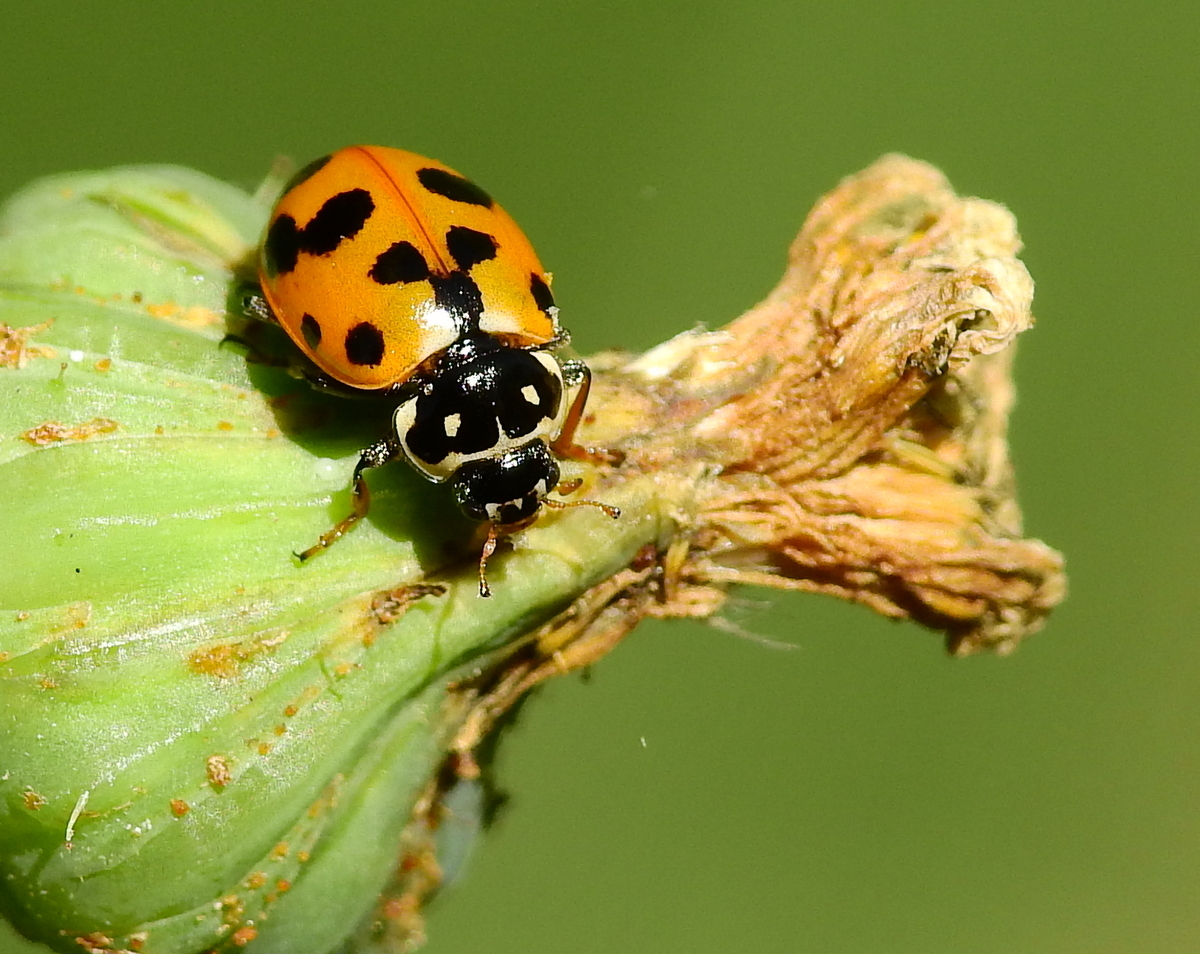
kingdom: Animalia
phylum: Arthropoda
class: Insecta
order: Coleoptera
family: Coccinellidae
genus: Hippodamia
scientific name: Hippodamia variegata
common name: Ladybird beetle
